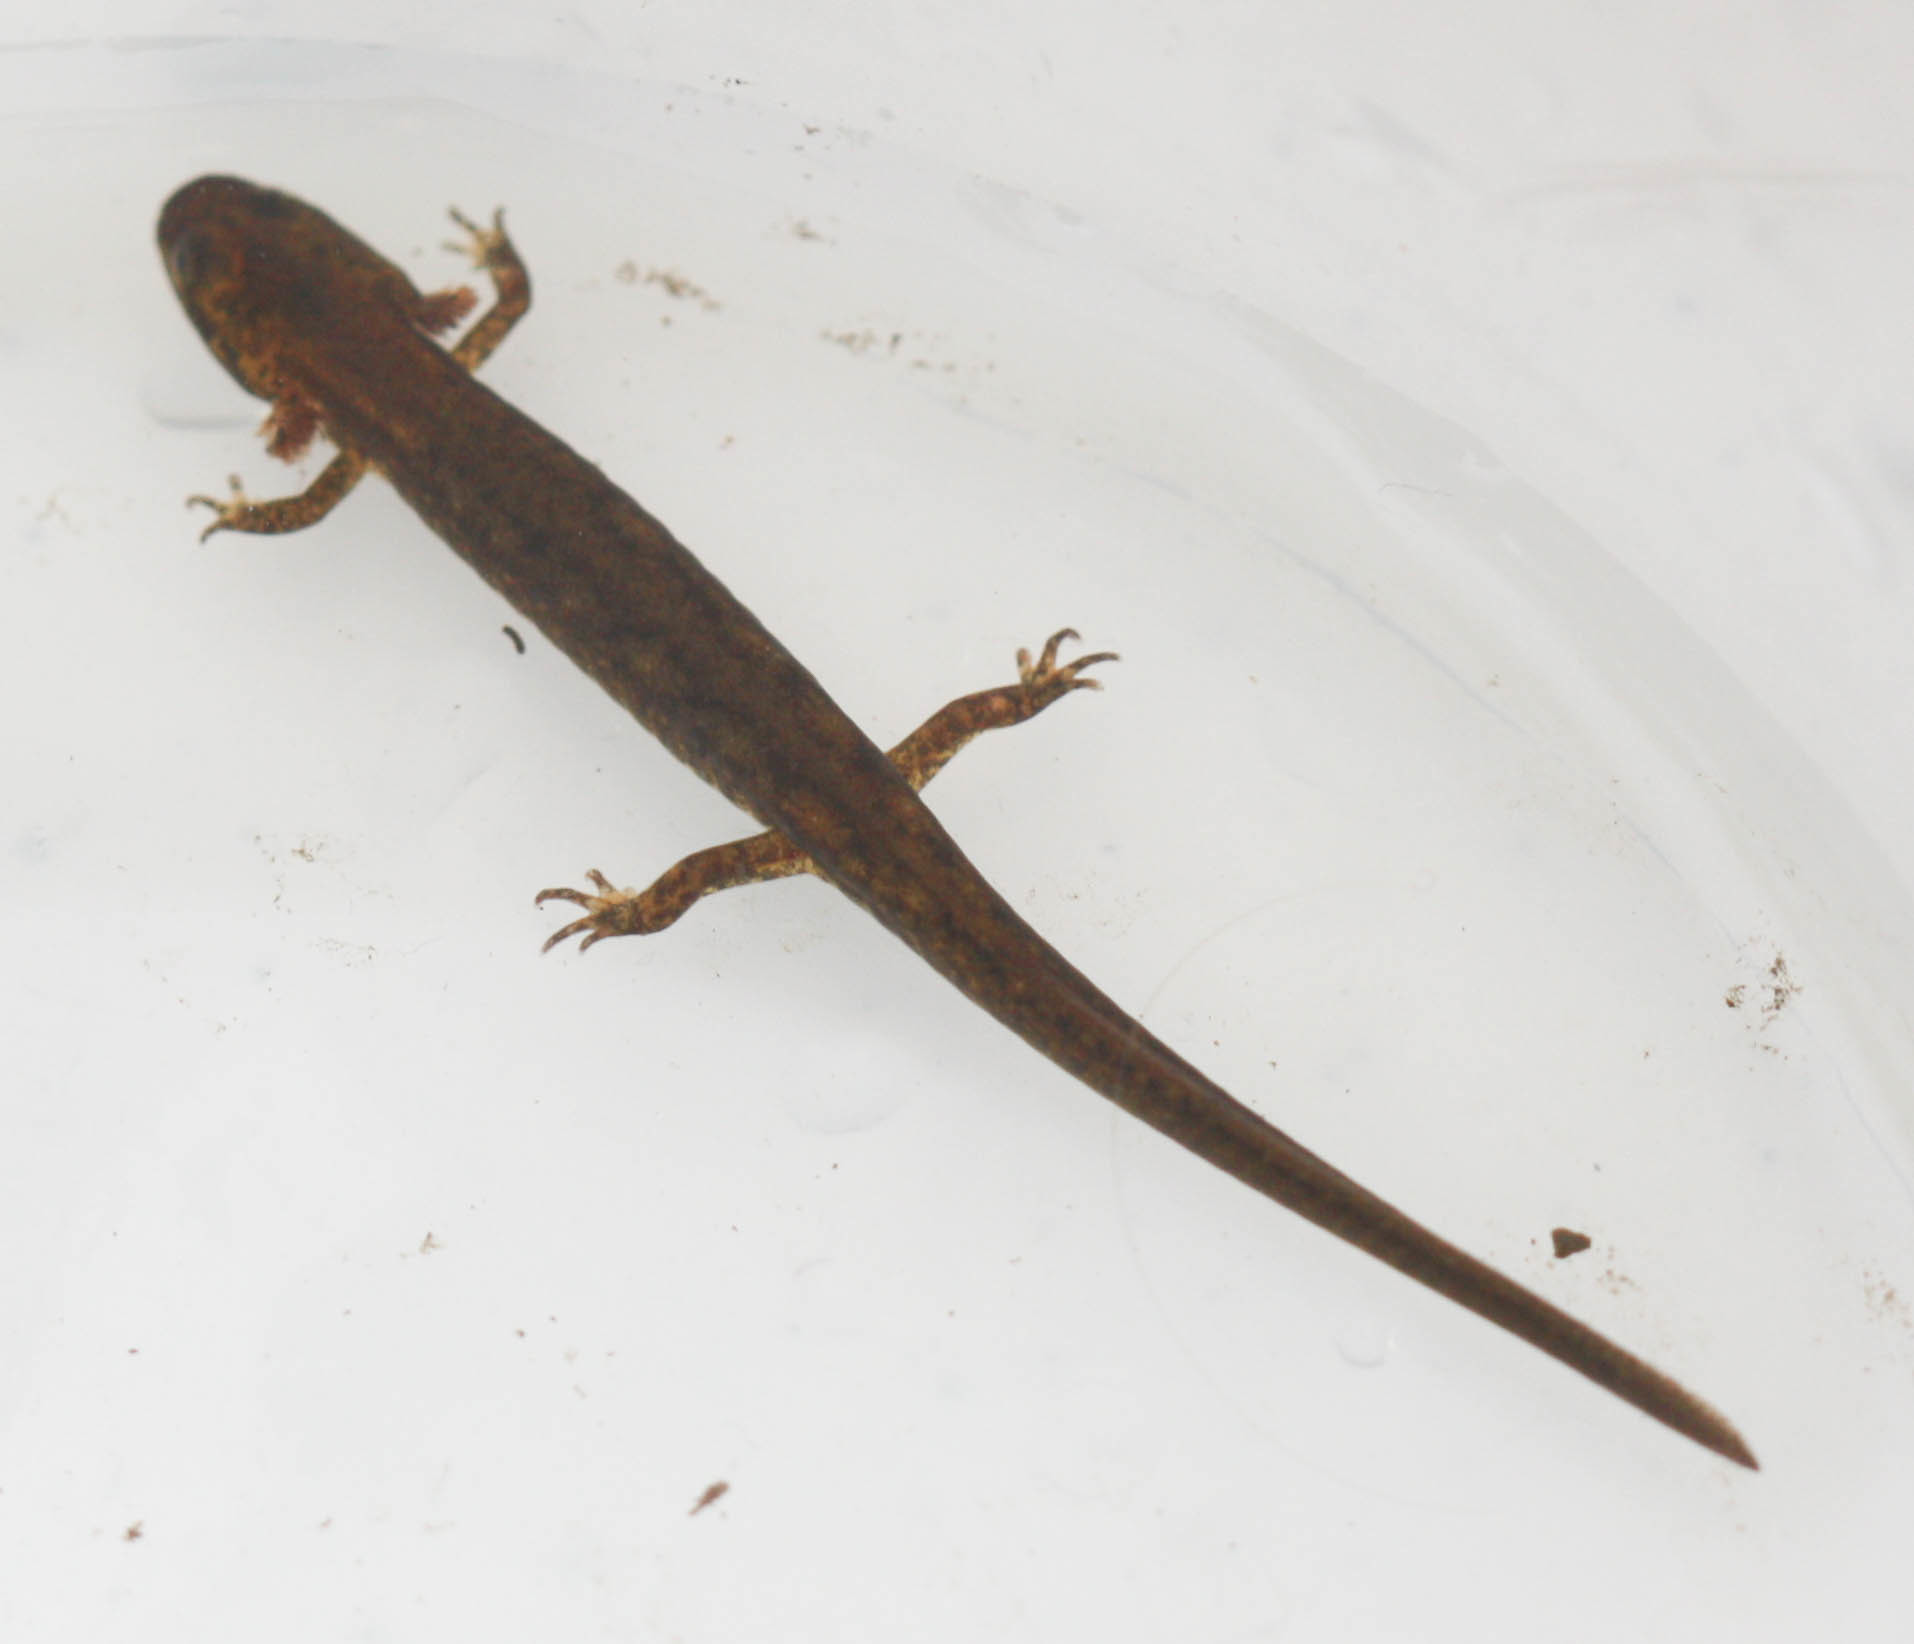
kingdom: Animalia
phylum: Chordata
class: Amphibia
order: Caudata
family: Plethodontidae
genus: Eurycea
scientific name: Eurycea bislineata
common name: Northern two-lined salamander
